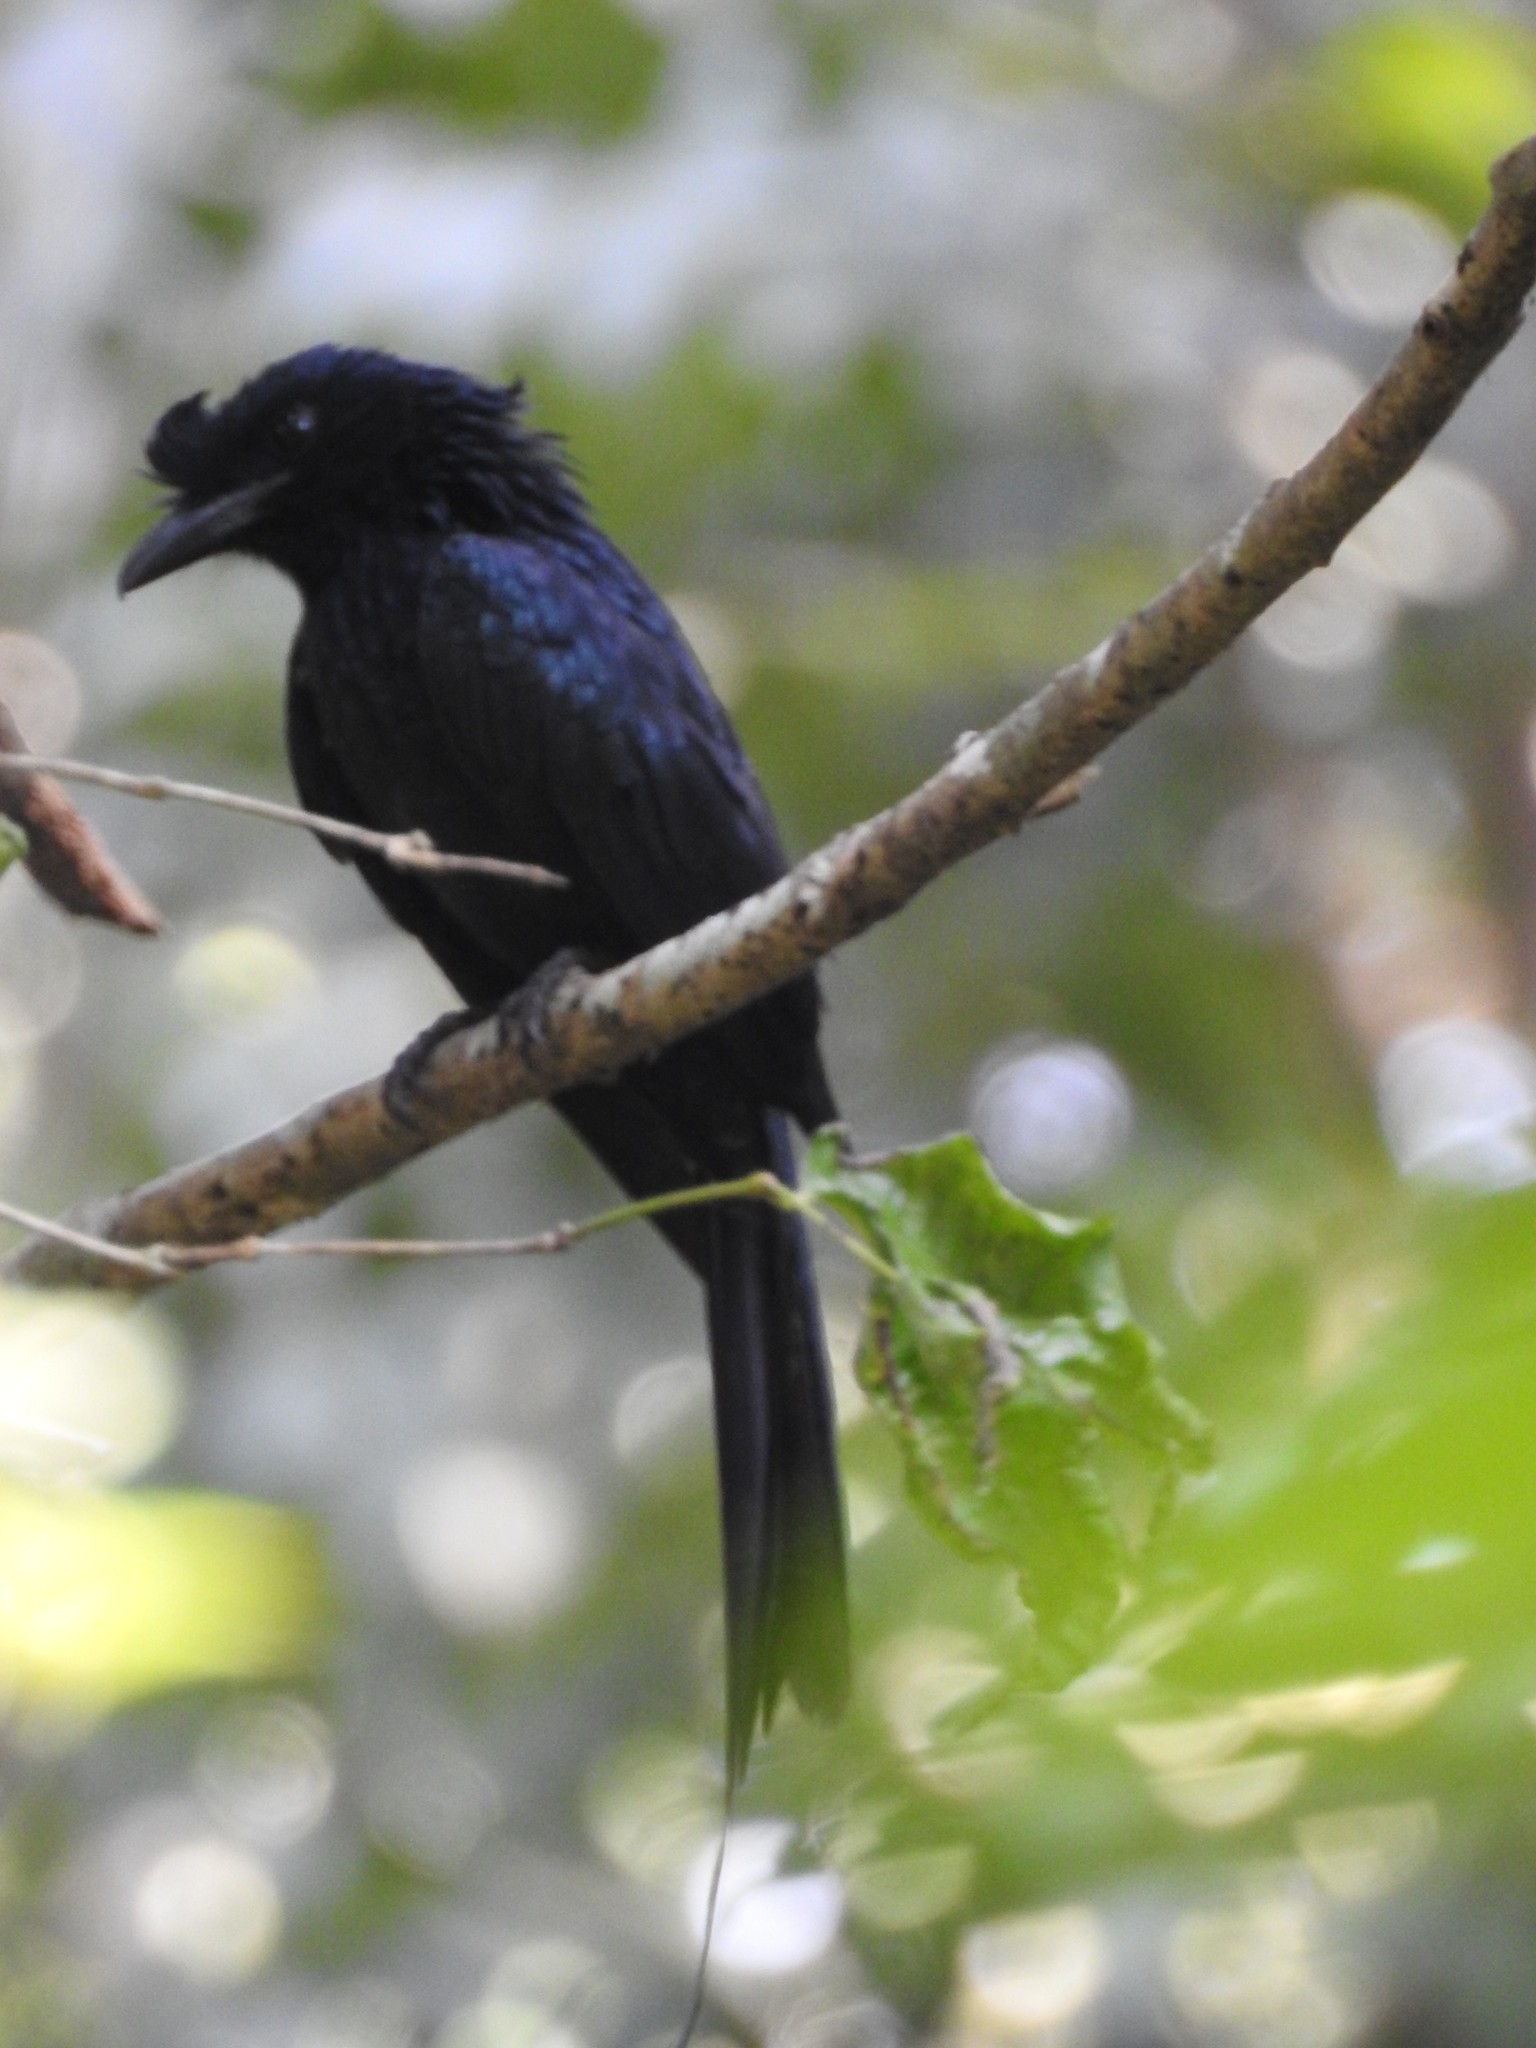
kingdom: Animalia
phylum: Chordata
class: Aves
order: Passeriformes
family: Dicruridae
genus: Dicrurus
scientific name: Dicrurus paradiseus
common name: Greater racket-tailed drongo
